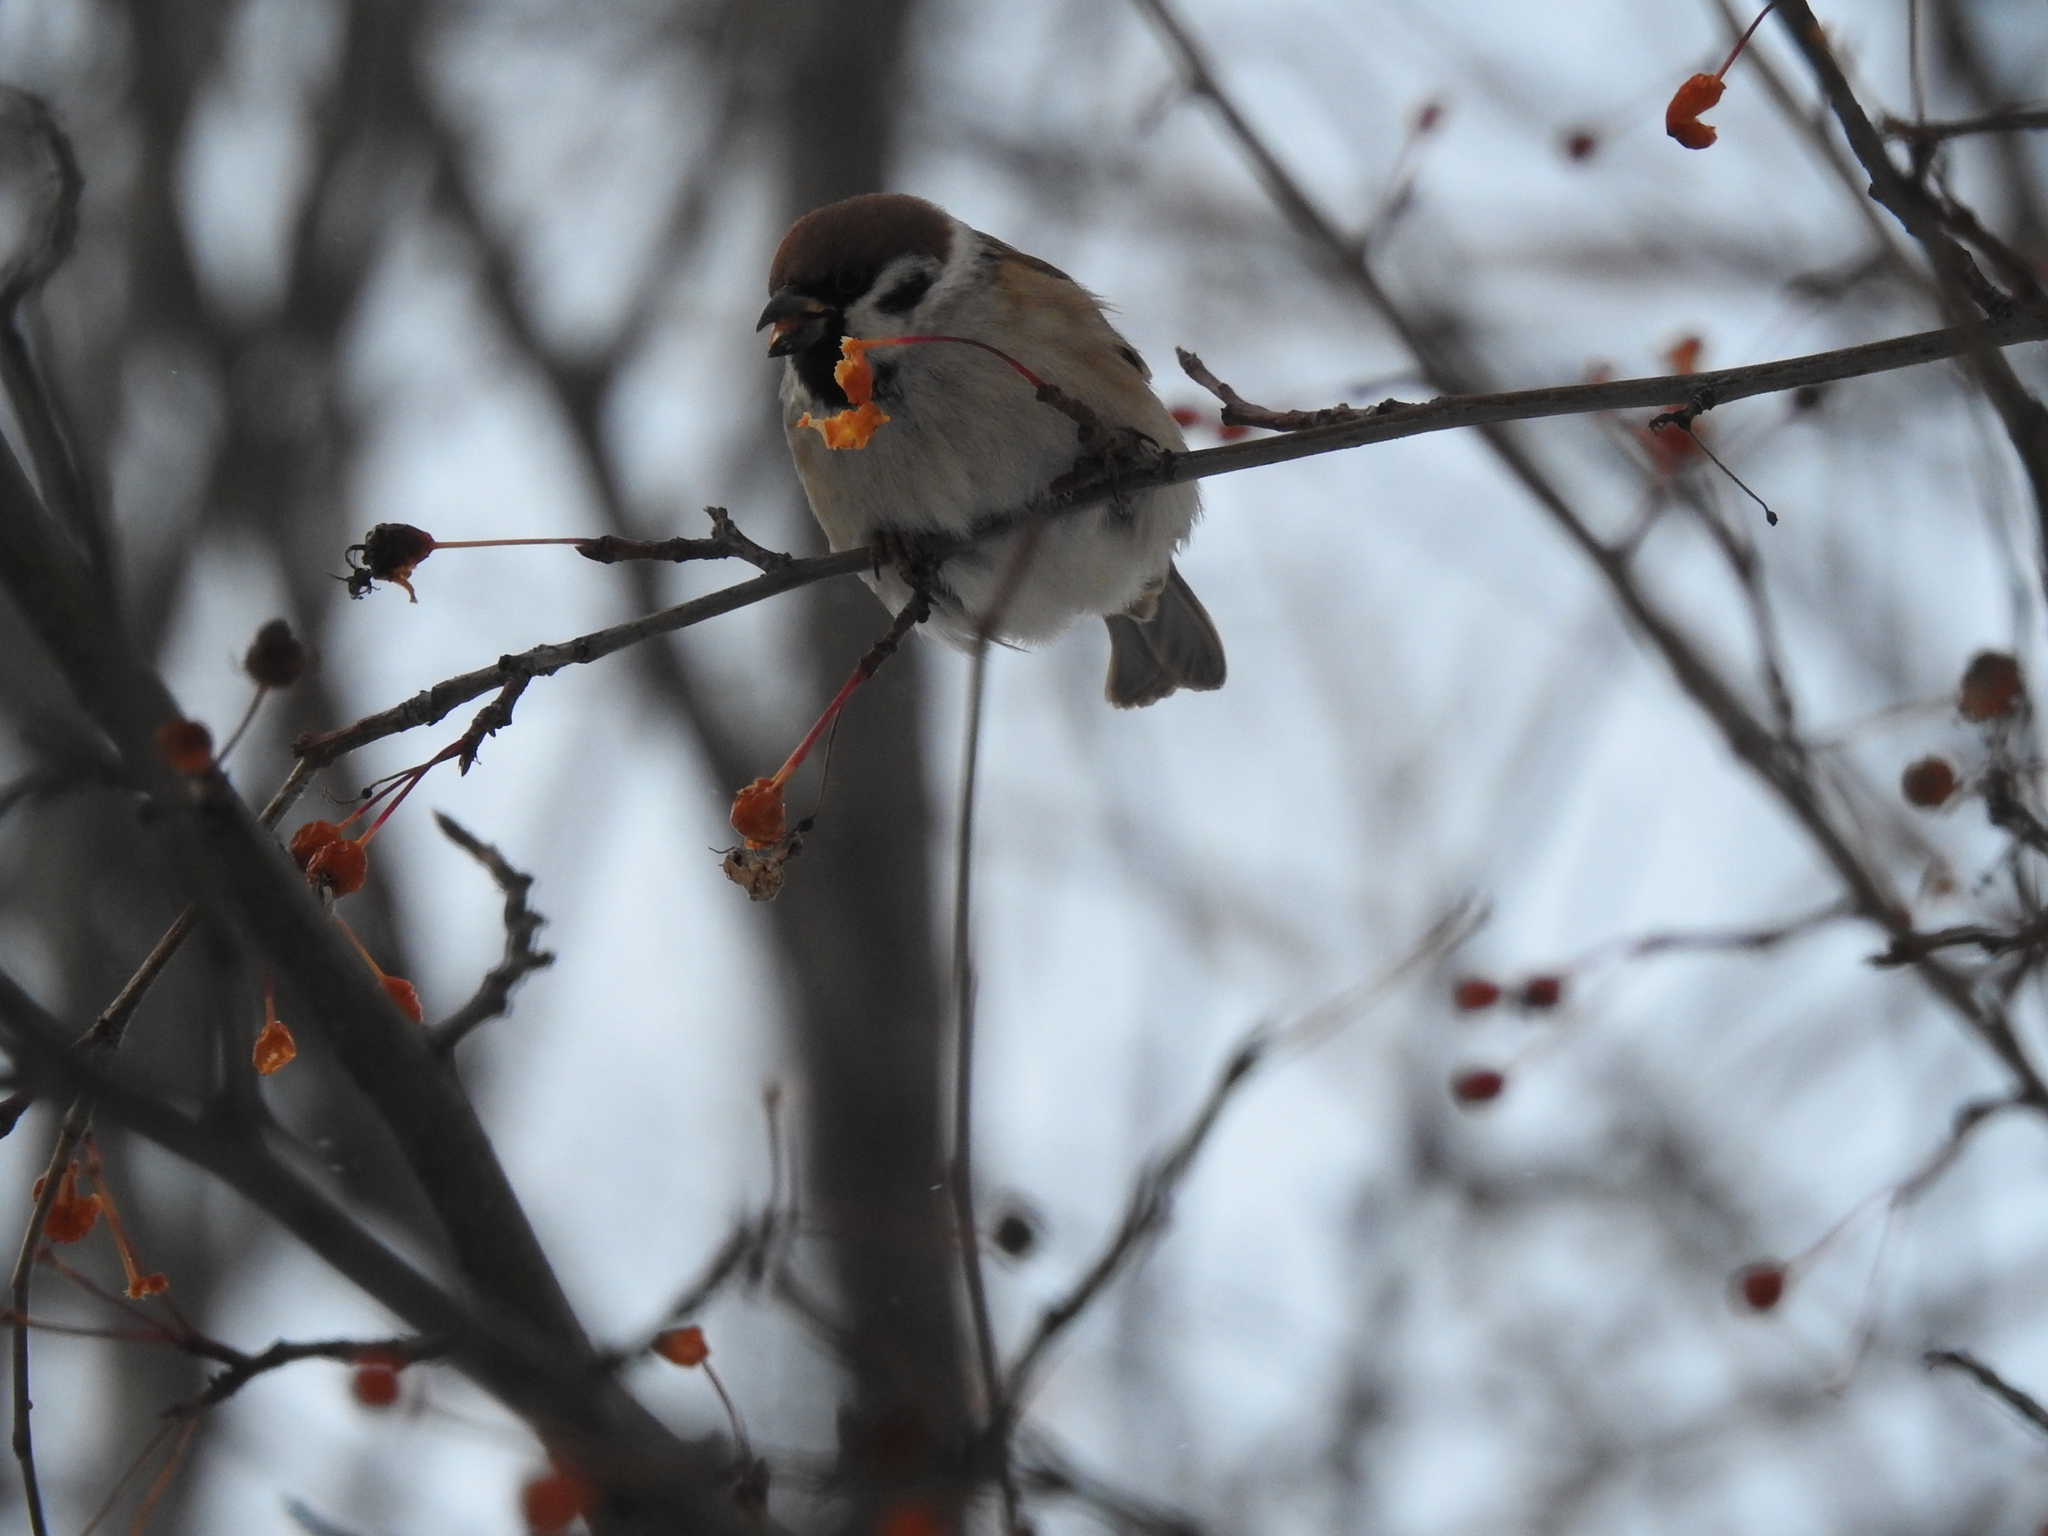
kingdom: Animalia
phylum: Chordata
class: Aves
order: Passeriformes
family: Passeridae
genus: Passer
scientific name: Passer montanus
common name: Eurasian tree sparrow
